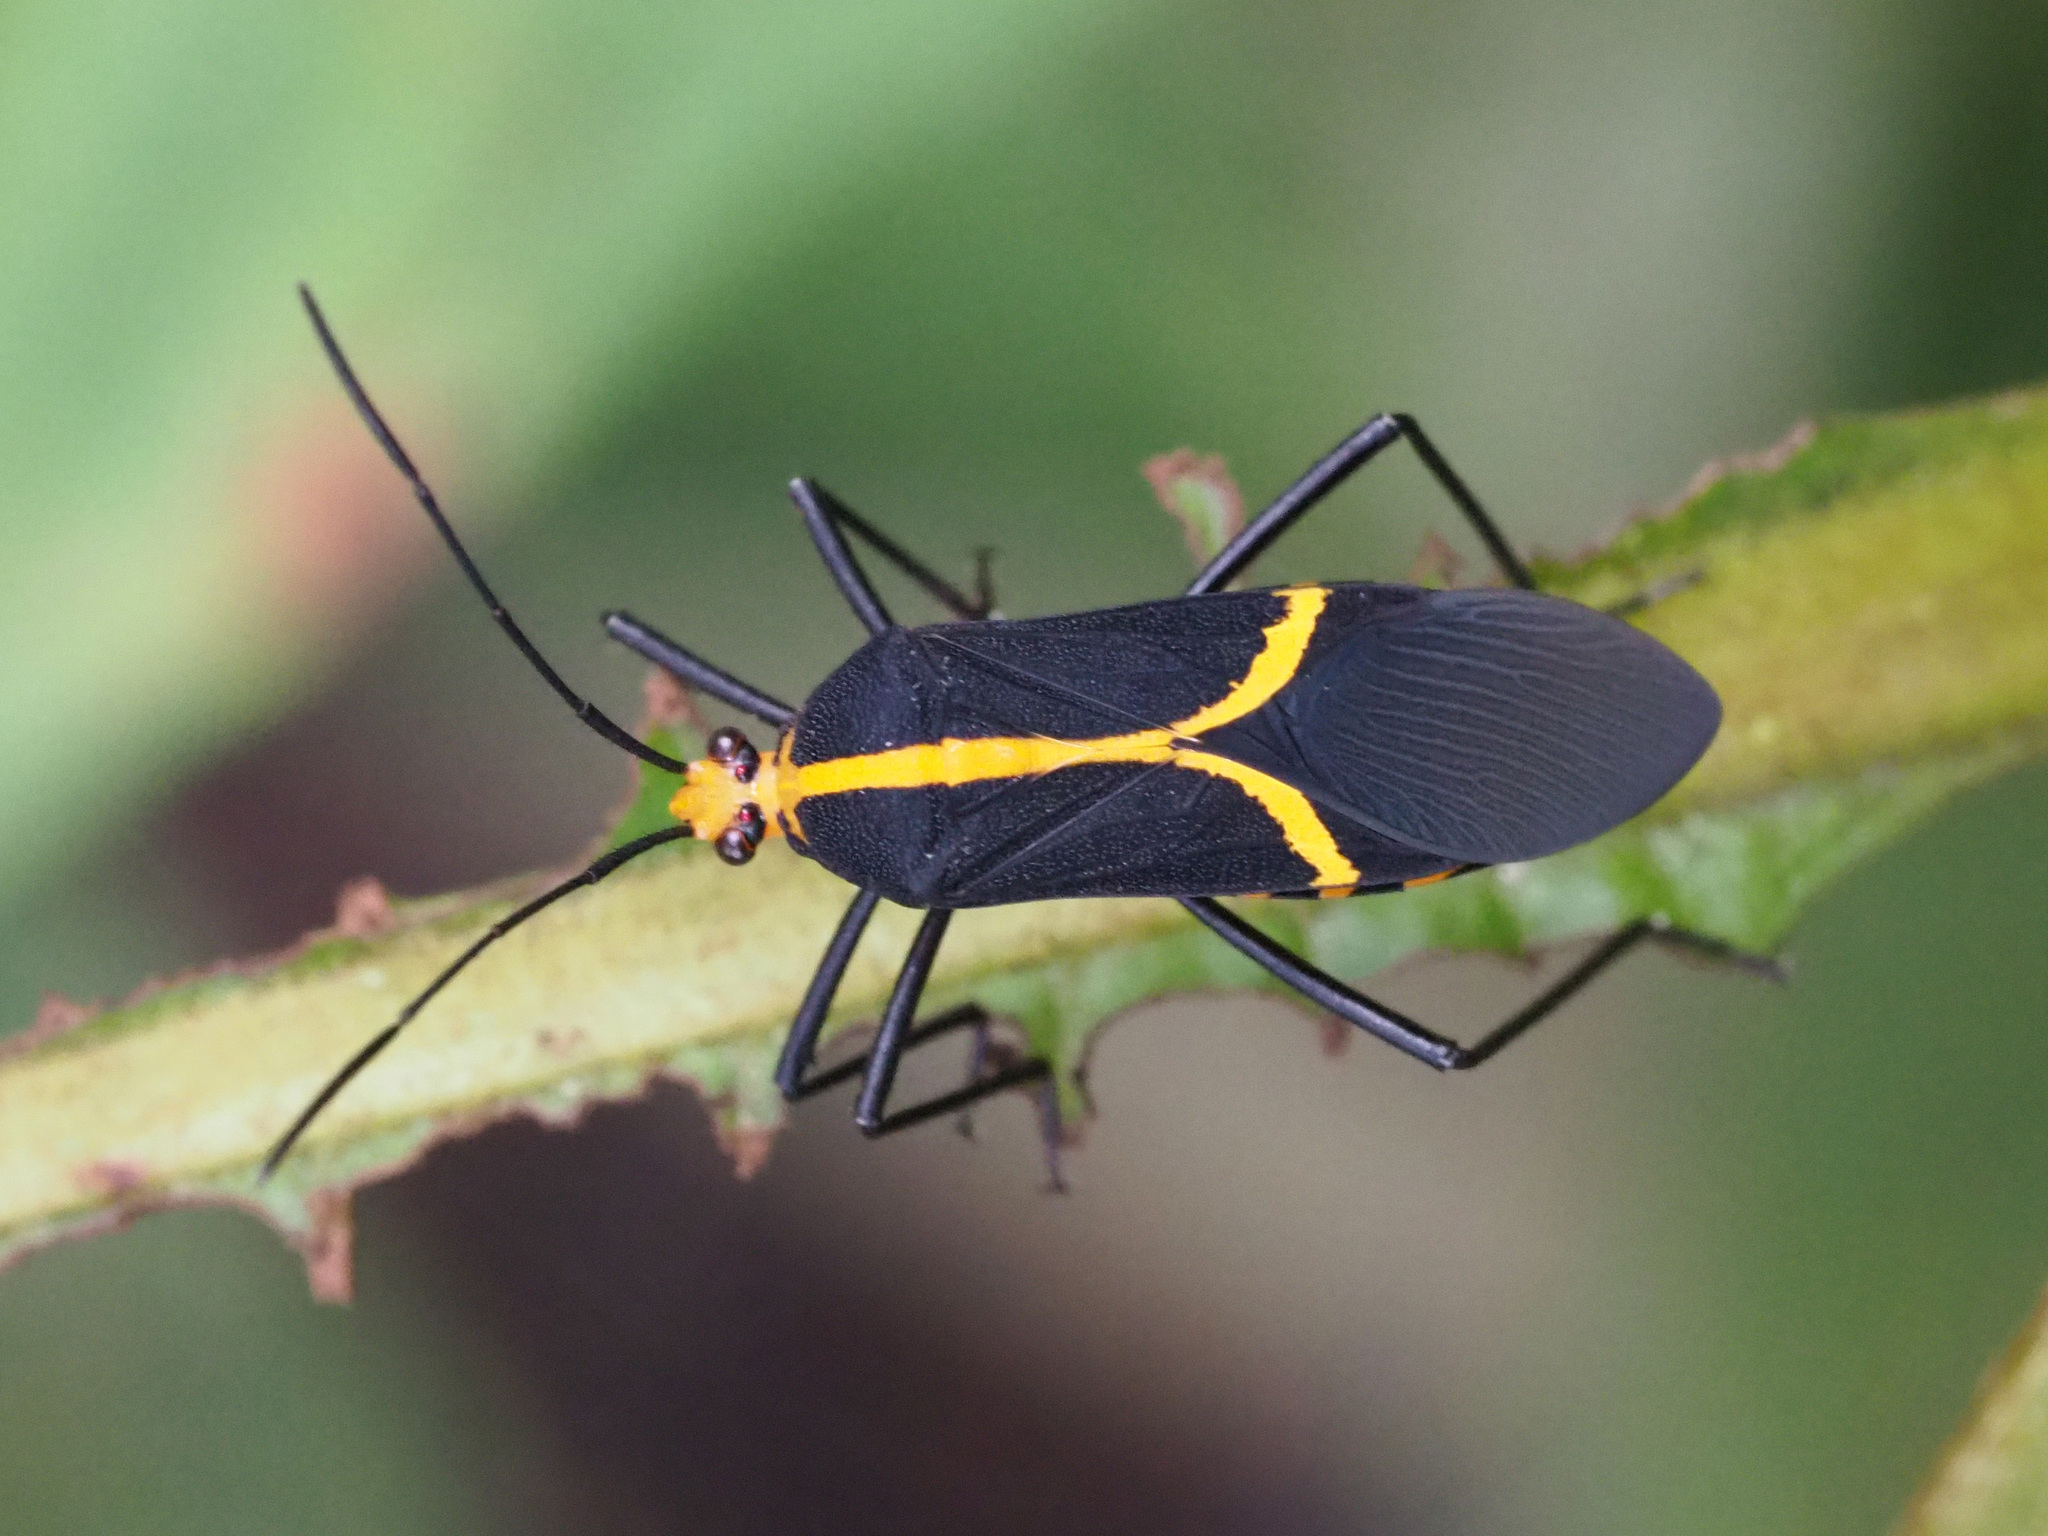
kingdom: Animalia
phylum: Arthropoda
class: Insecta
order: Hemiptera
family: Coreidae
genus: Hypselonotus
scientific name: Hypselonotus linea
